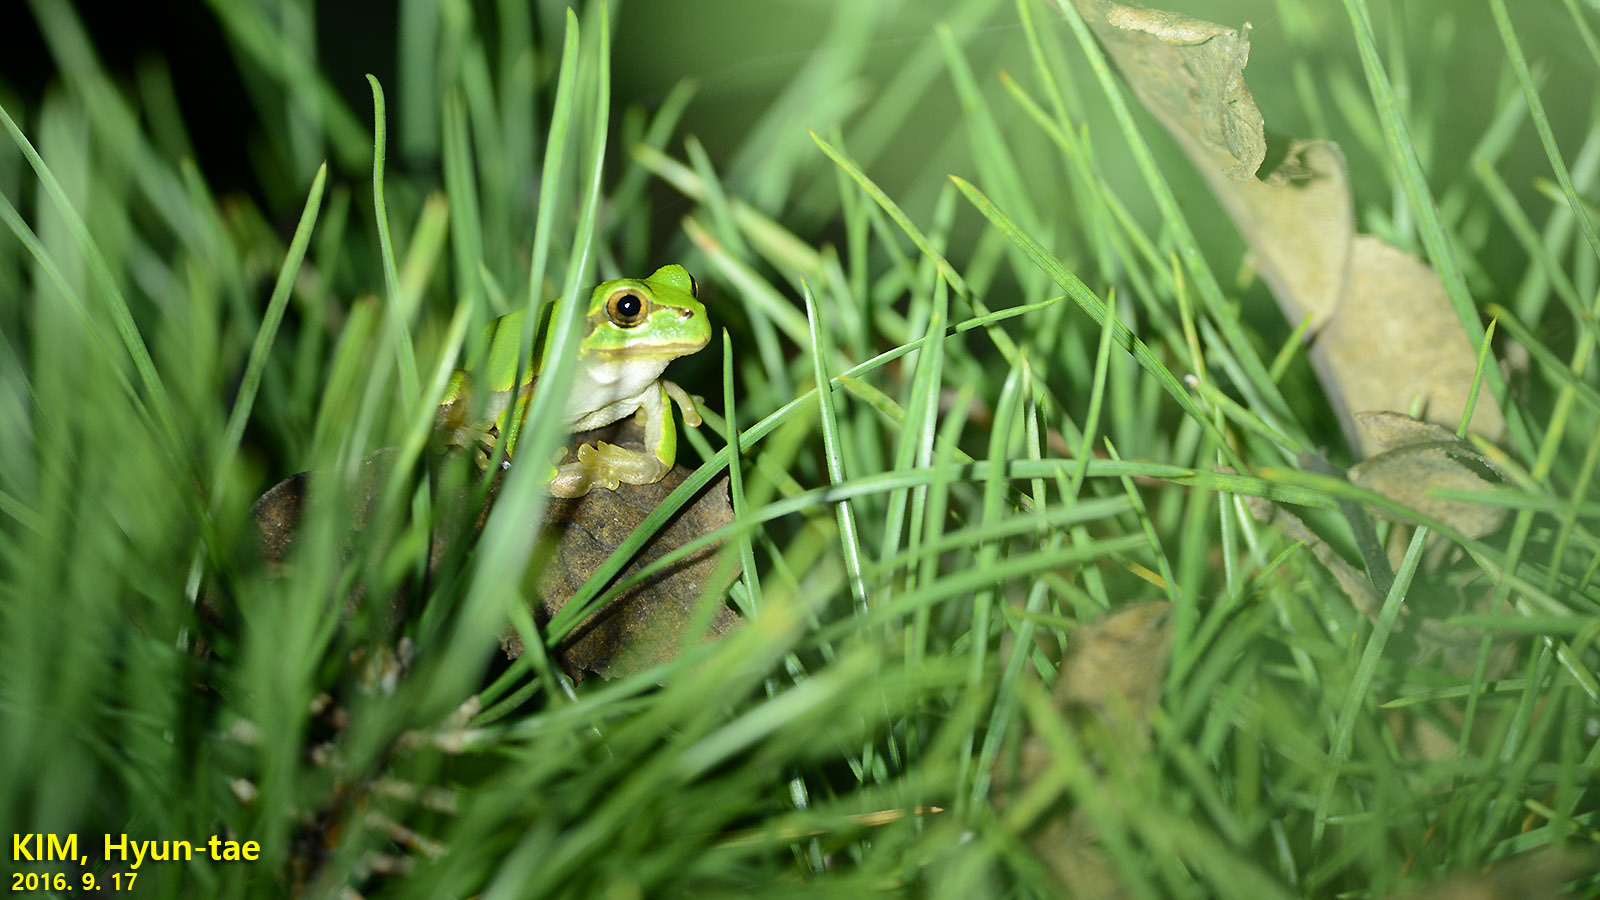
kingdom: Animalia
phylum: Chordata
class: Amphibia
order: Anura
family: Hylidae
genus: Dryophytes
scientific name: Dryophytes japonicus
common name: Japanese treefrog
